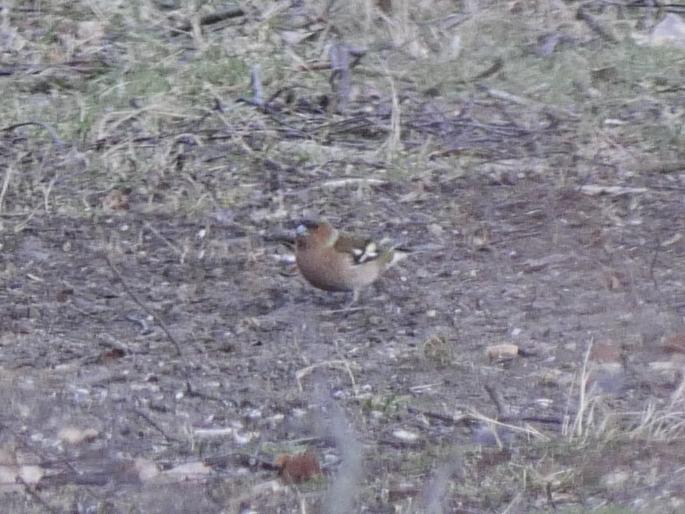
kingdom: Animalia
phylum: Chordata
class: Aves
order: Passeriformes
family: Fringillidae
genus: Fringilla
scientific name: Fringilla coelebs
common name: Common chaffinch
